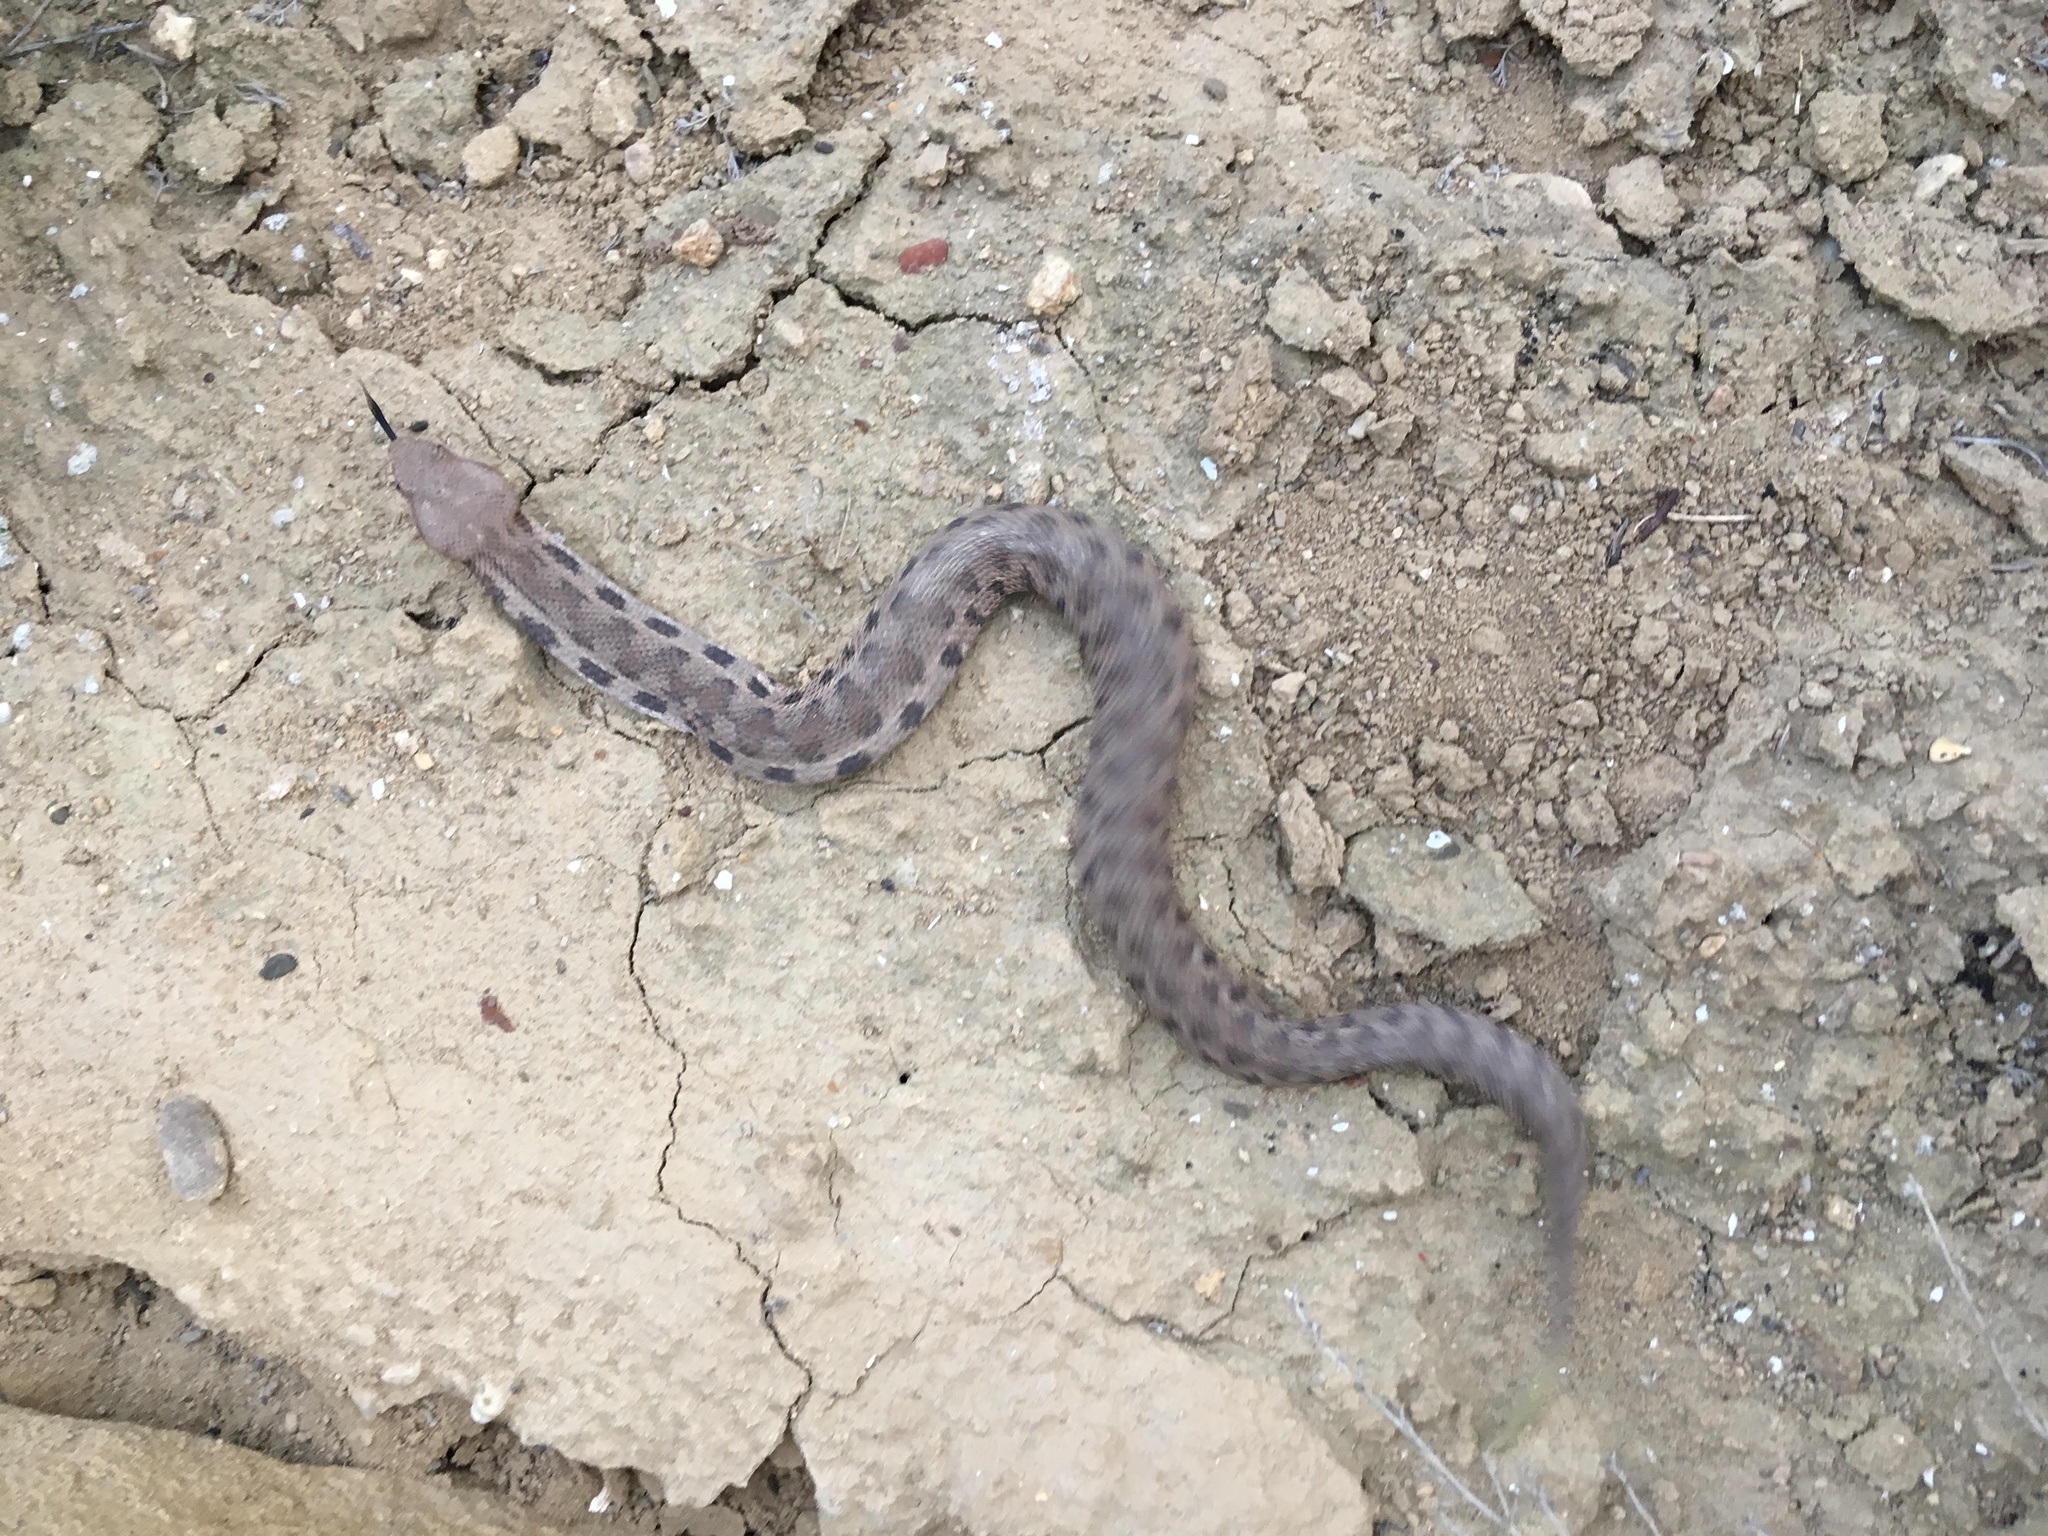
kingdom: Animalia
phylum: Chordata
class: Squamata
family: Viperidae
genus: Macrovipera
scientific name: Macrovipera lebetinus
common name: Levantine viper
